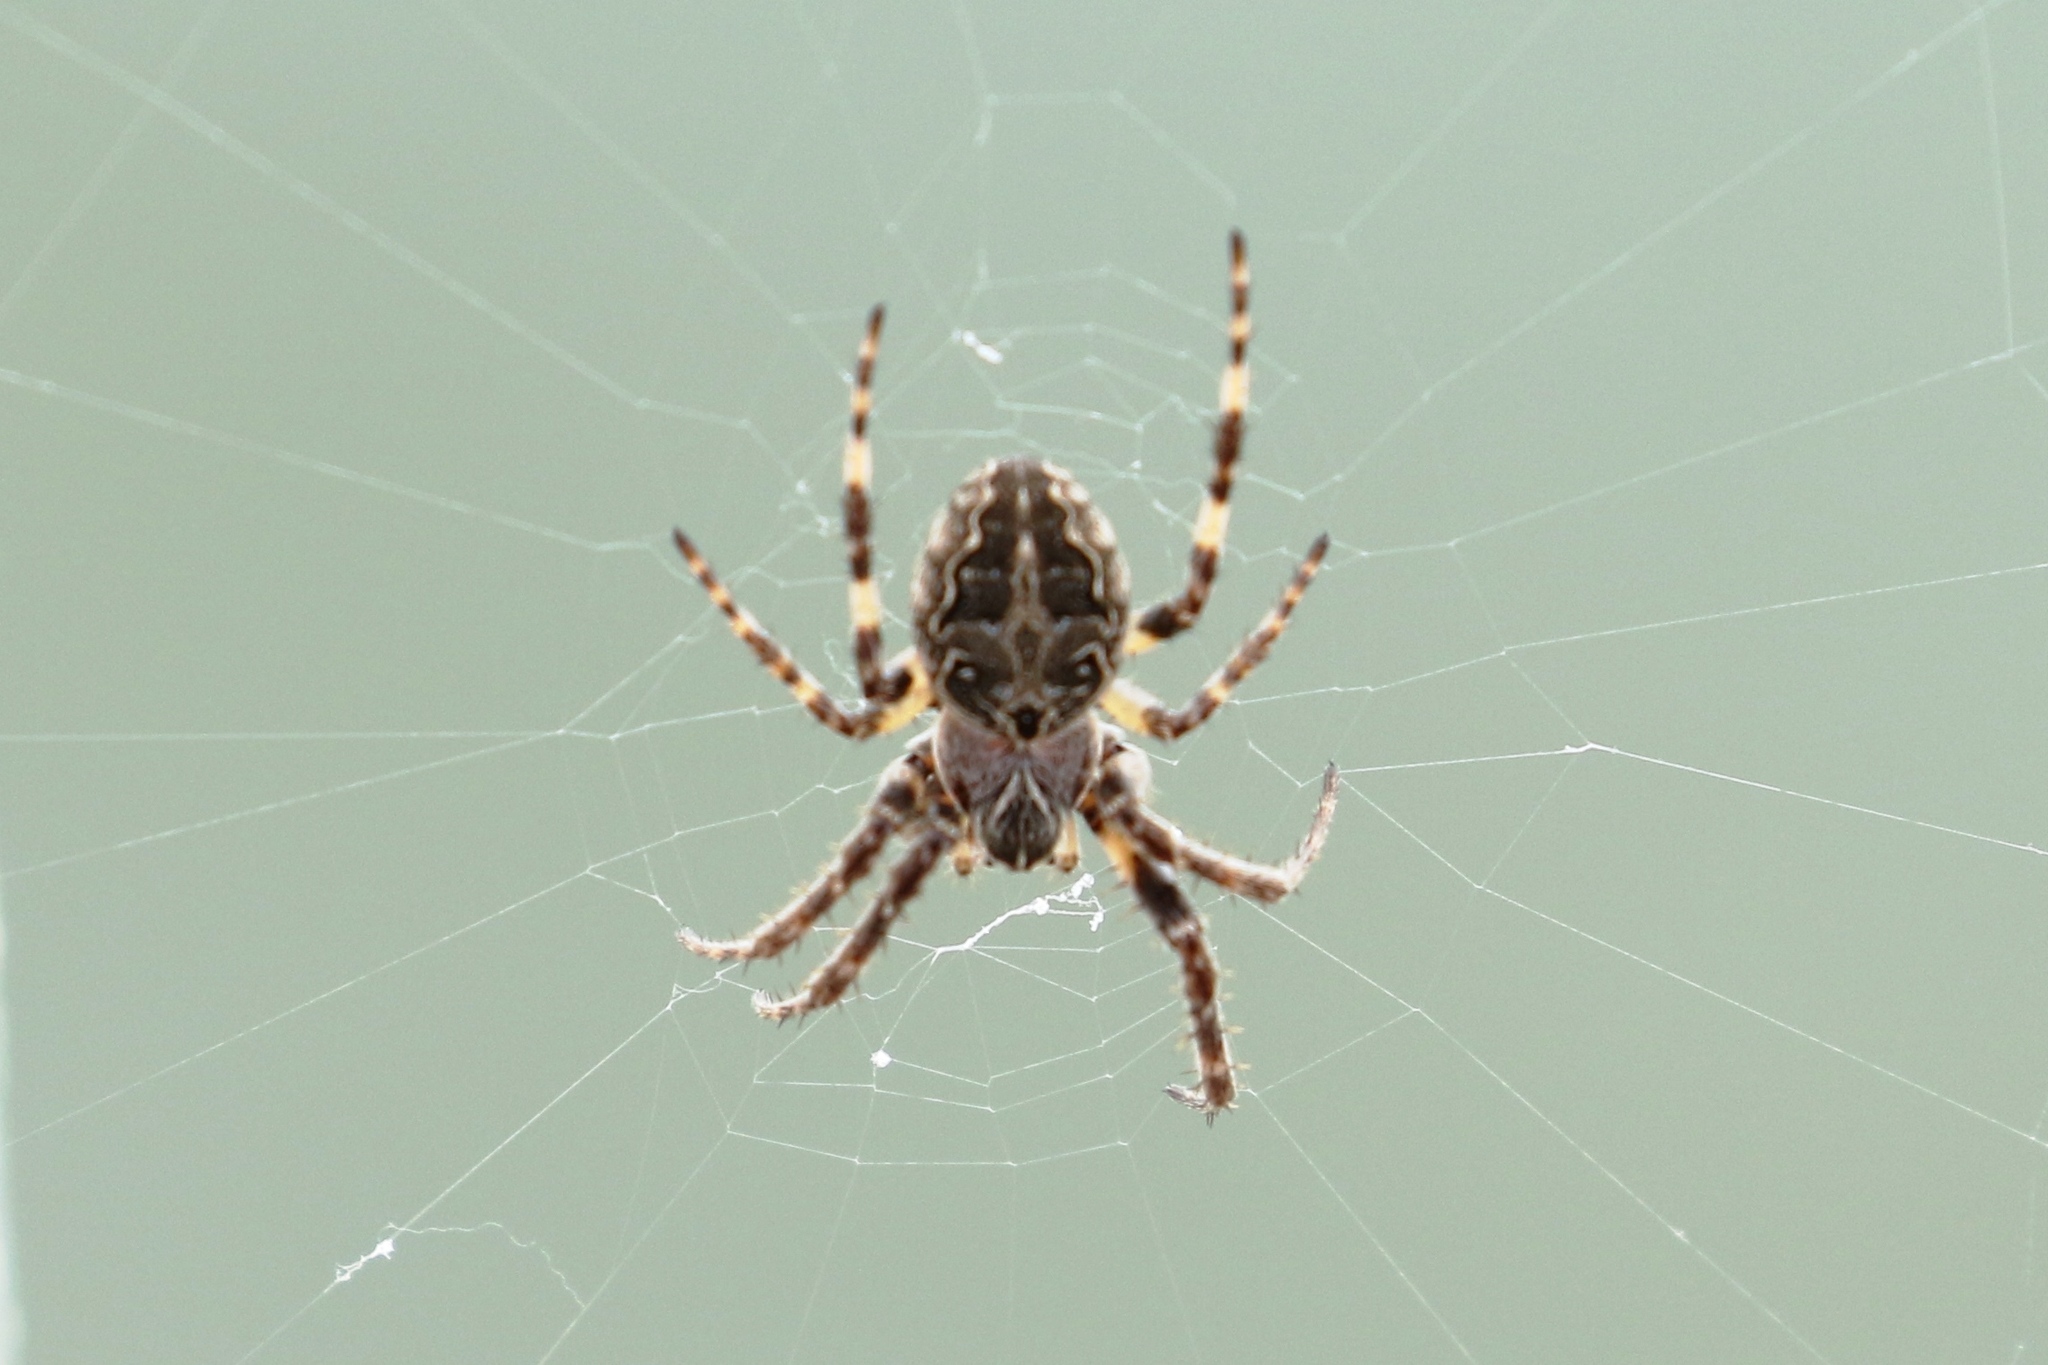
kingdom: Animalia
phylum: Arthropoda
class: Arachnida
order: Araneae
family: Araneidae
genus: Larinioides
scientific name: Larinioides sclopetarius
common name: Bridge orbweaver
